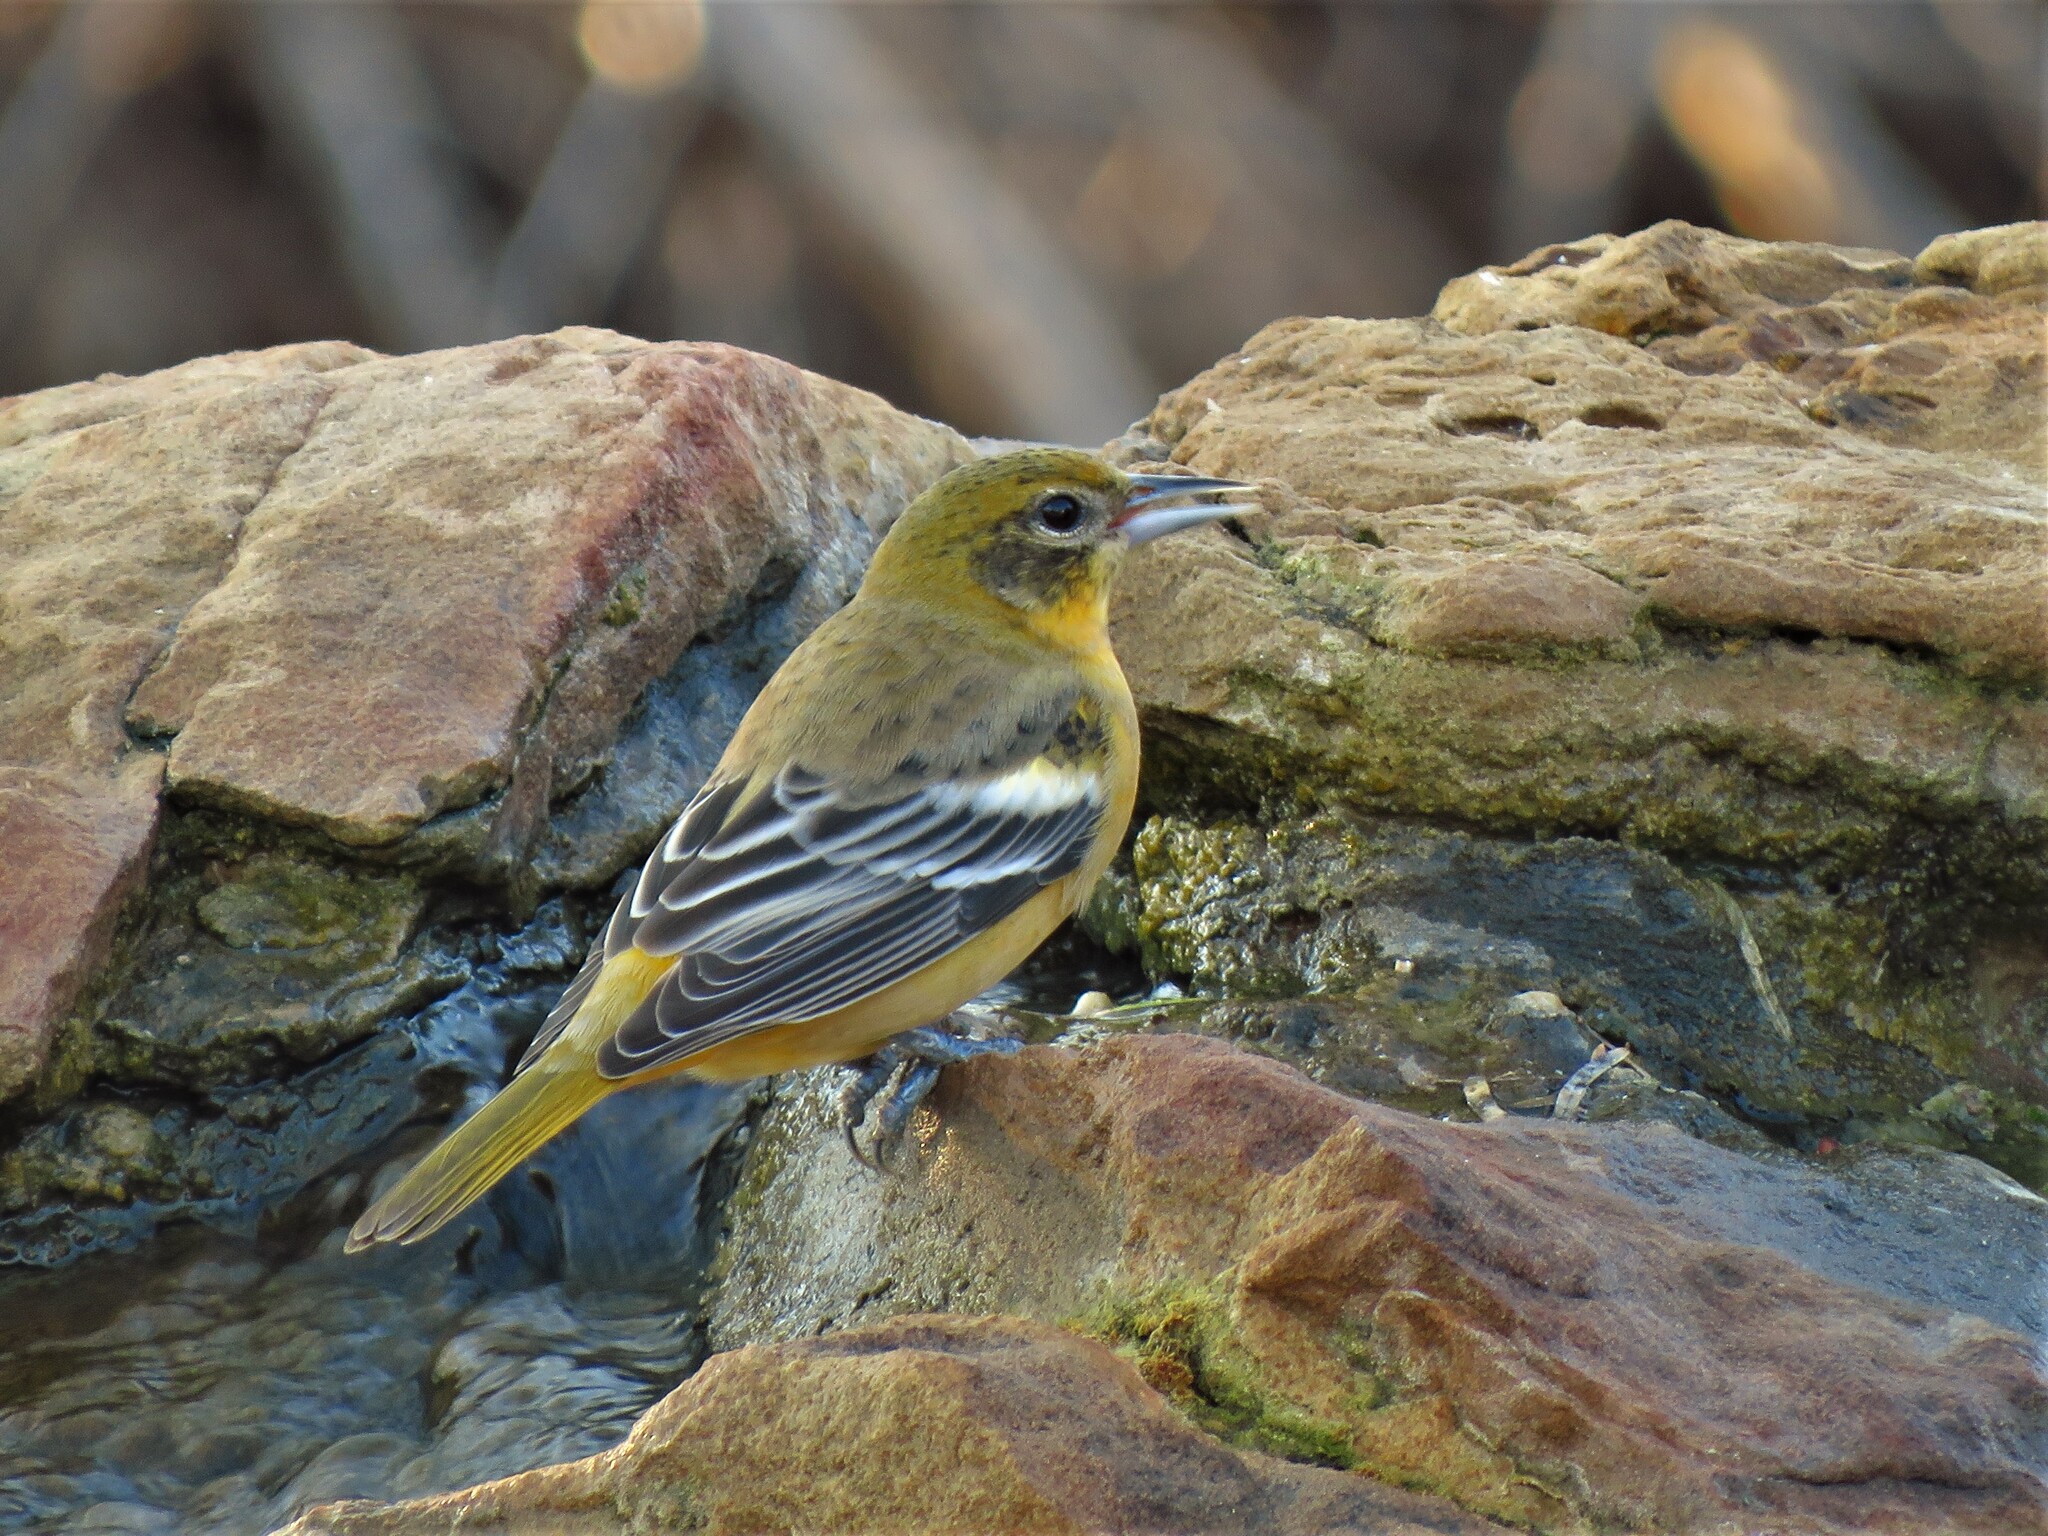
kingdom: Animalia
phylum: Chordata
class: Aves
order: Passeriformes
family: Icteridae
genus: Icterus
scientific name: Icterus galbula
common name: Baltimore oriole
